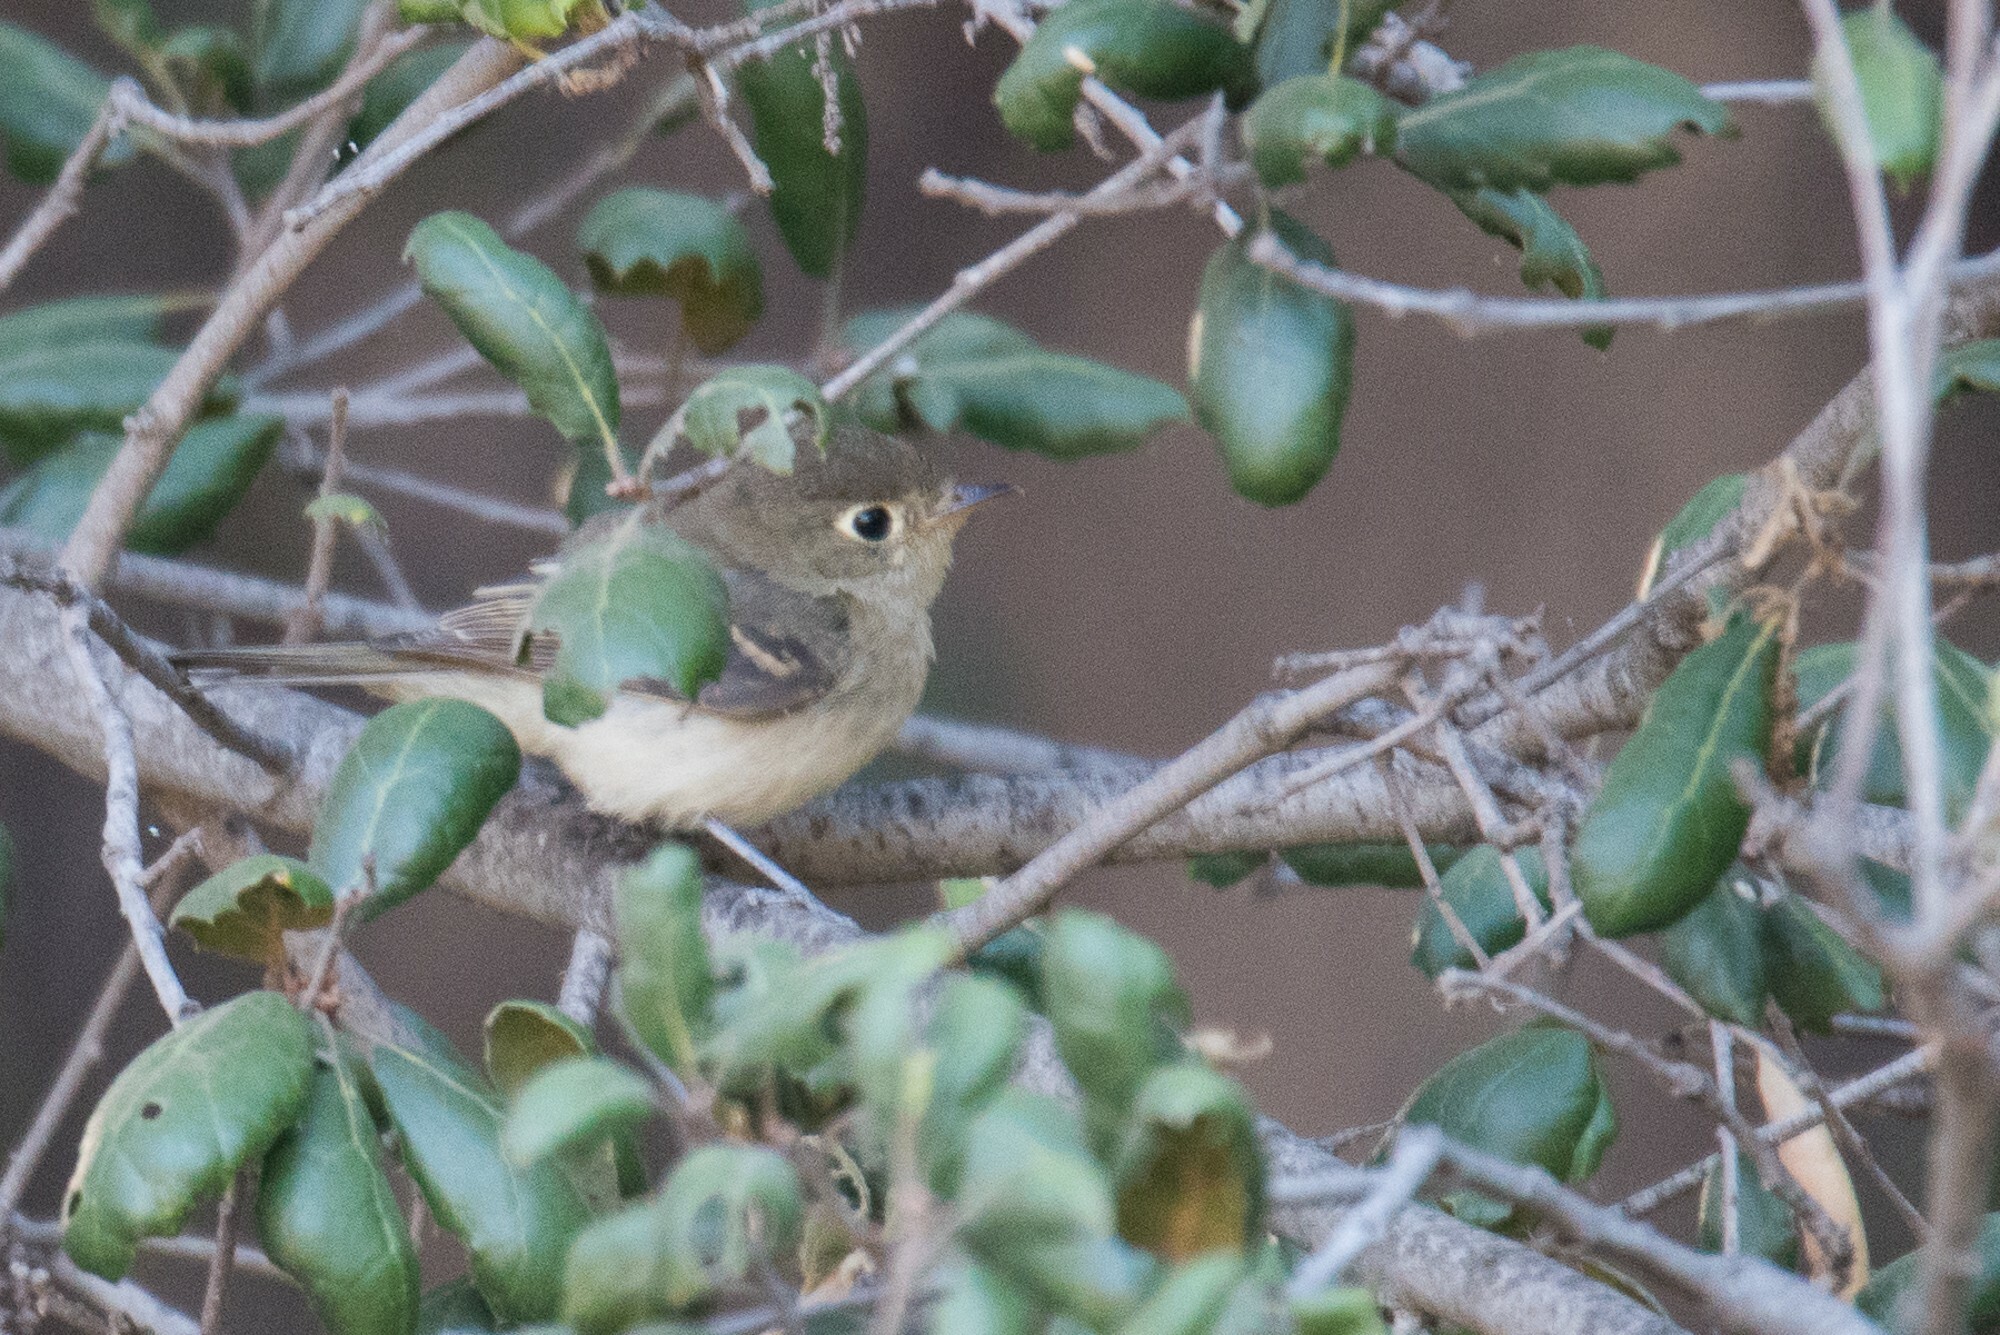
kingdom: Animalia
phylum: Chordata
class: Aves
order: Passeriformes
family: Tyrannidae
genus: Empidonax
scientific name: Empidonax difficilis
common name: Pacific-slope flycatcher
